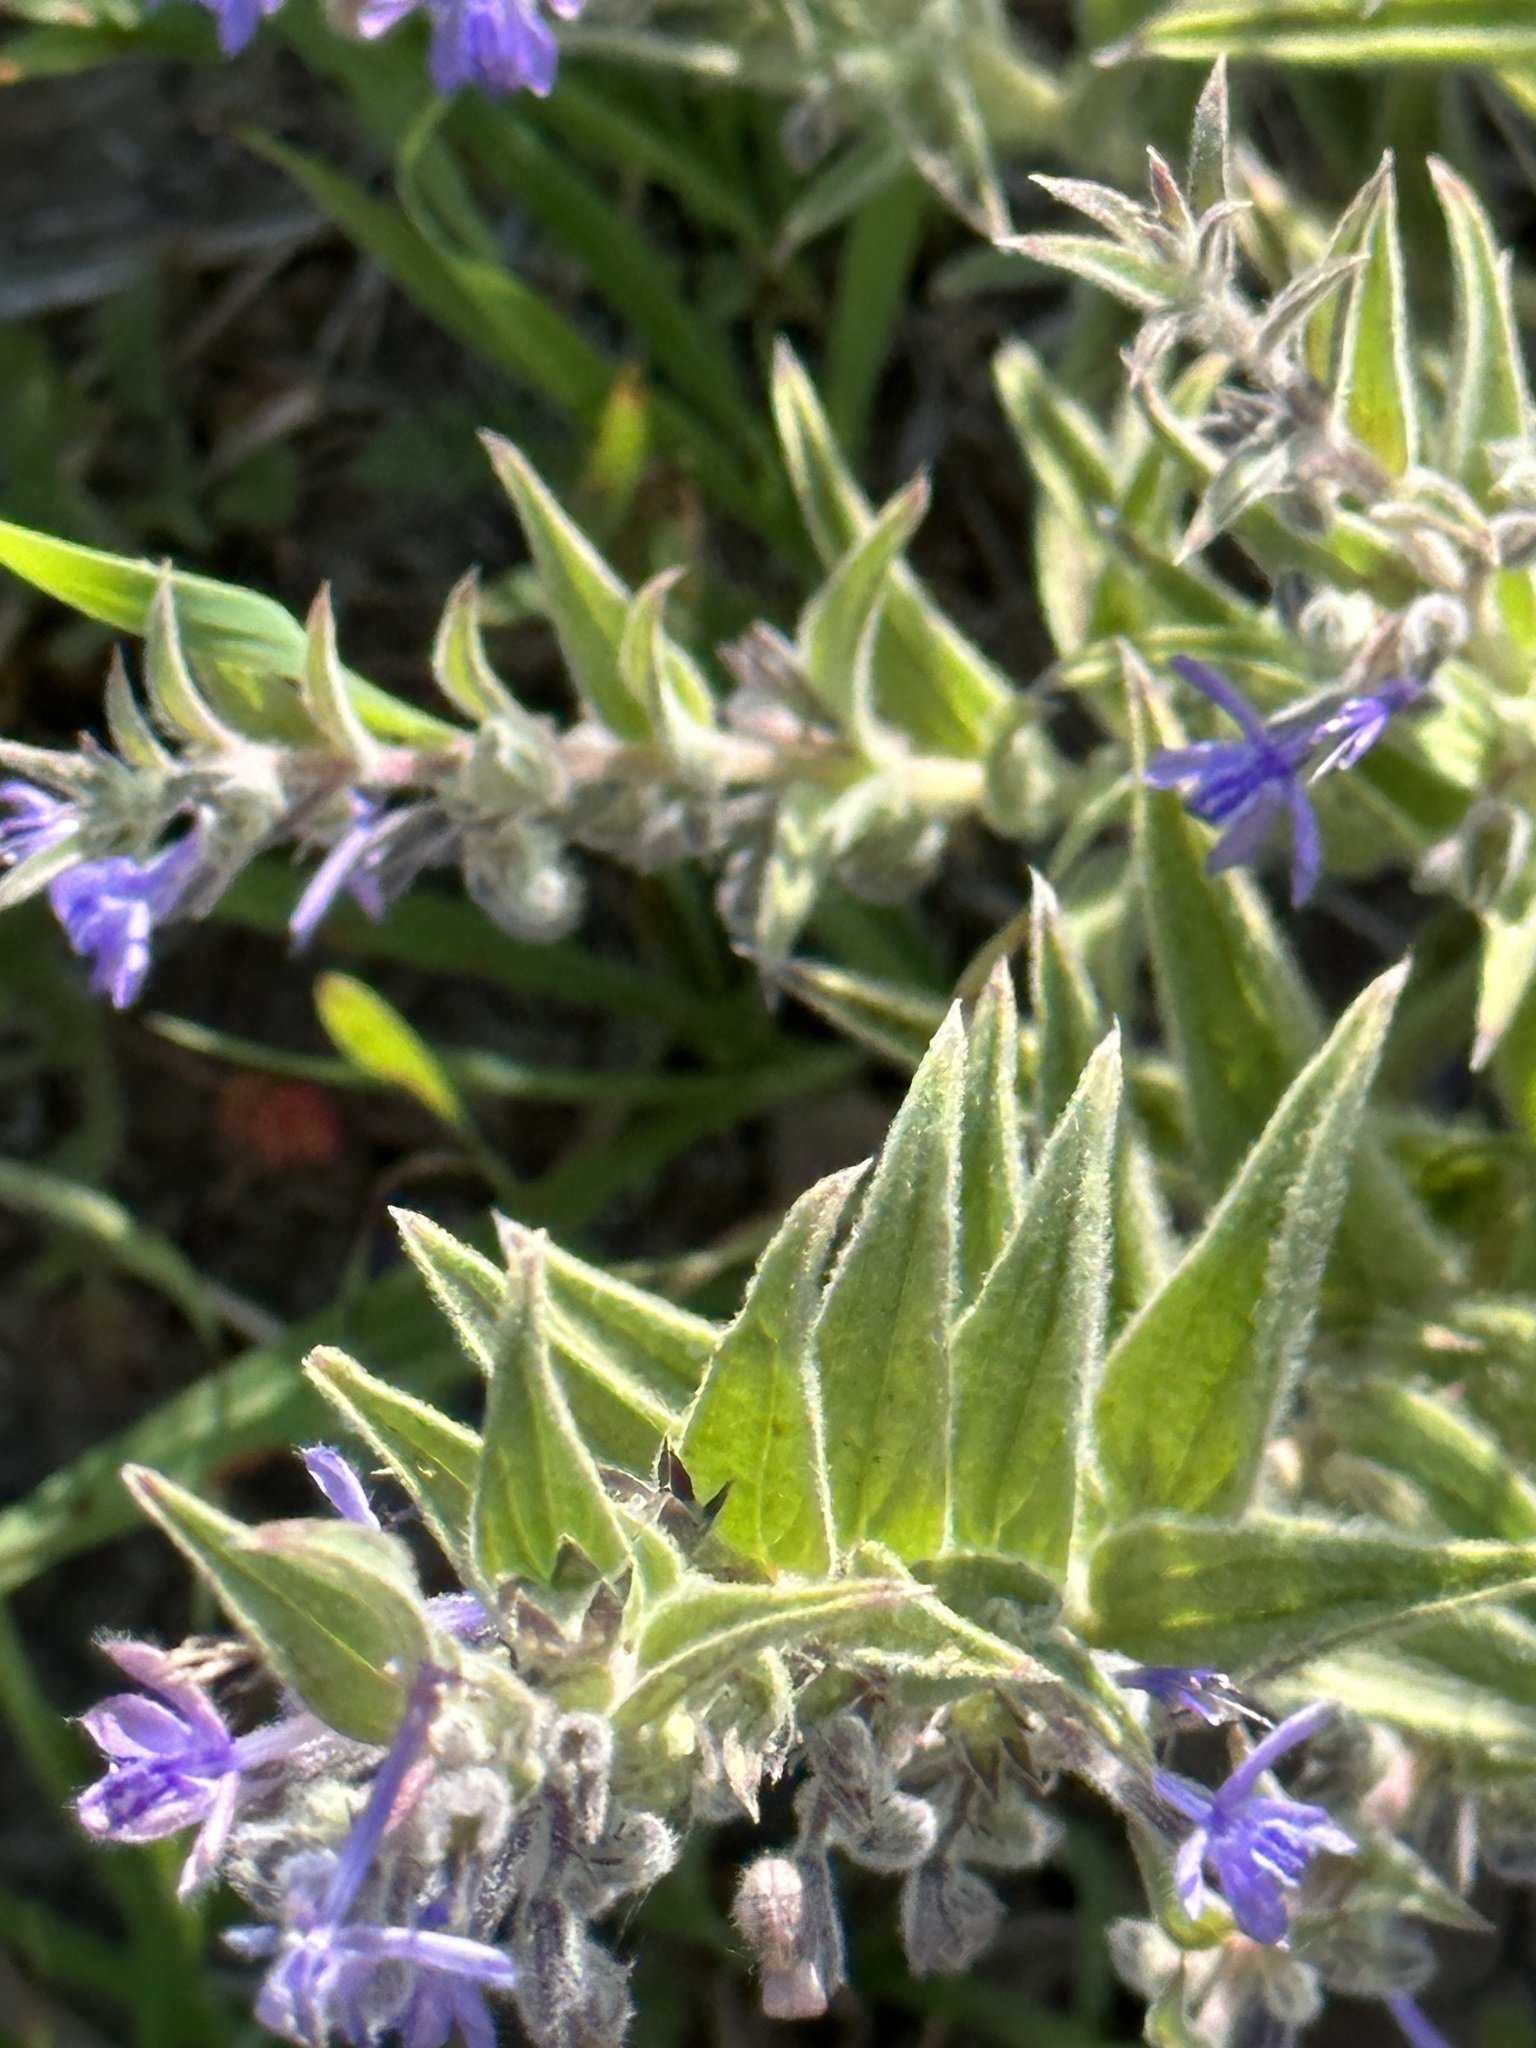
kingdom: Plantae
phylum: Tracheophyta
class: Magnoliopsida
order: Lamiales
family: Lamiaceae
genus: Trichostema
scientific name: Trichostema lanceolatum
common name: Vinegar-weed
